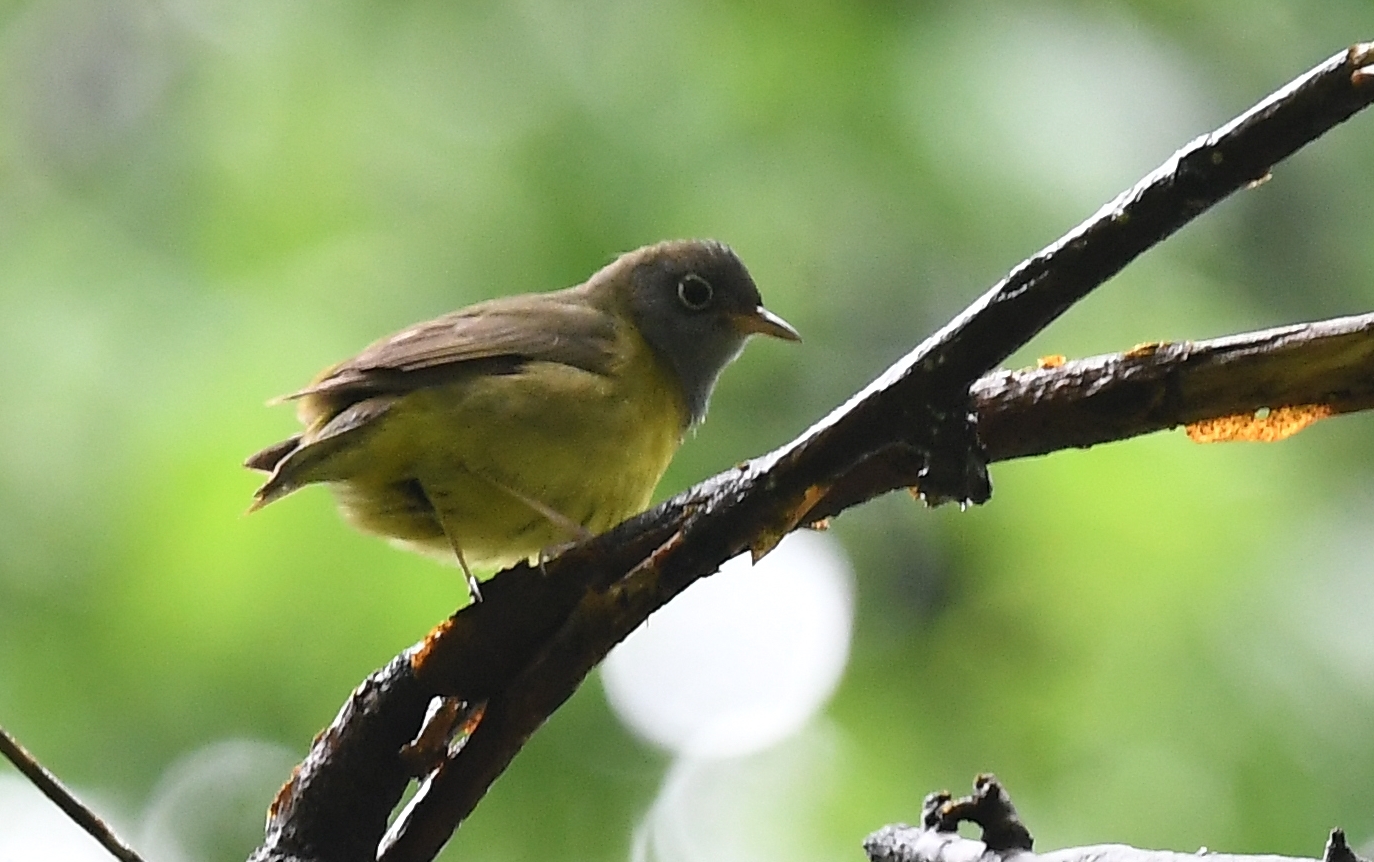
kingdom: Animalia
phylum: Chordata
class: Aves
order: Passeriformes
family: Parulidae
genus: Oporornis
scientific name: Oporornis agilis
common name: Connecticut warbler
